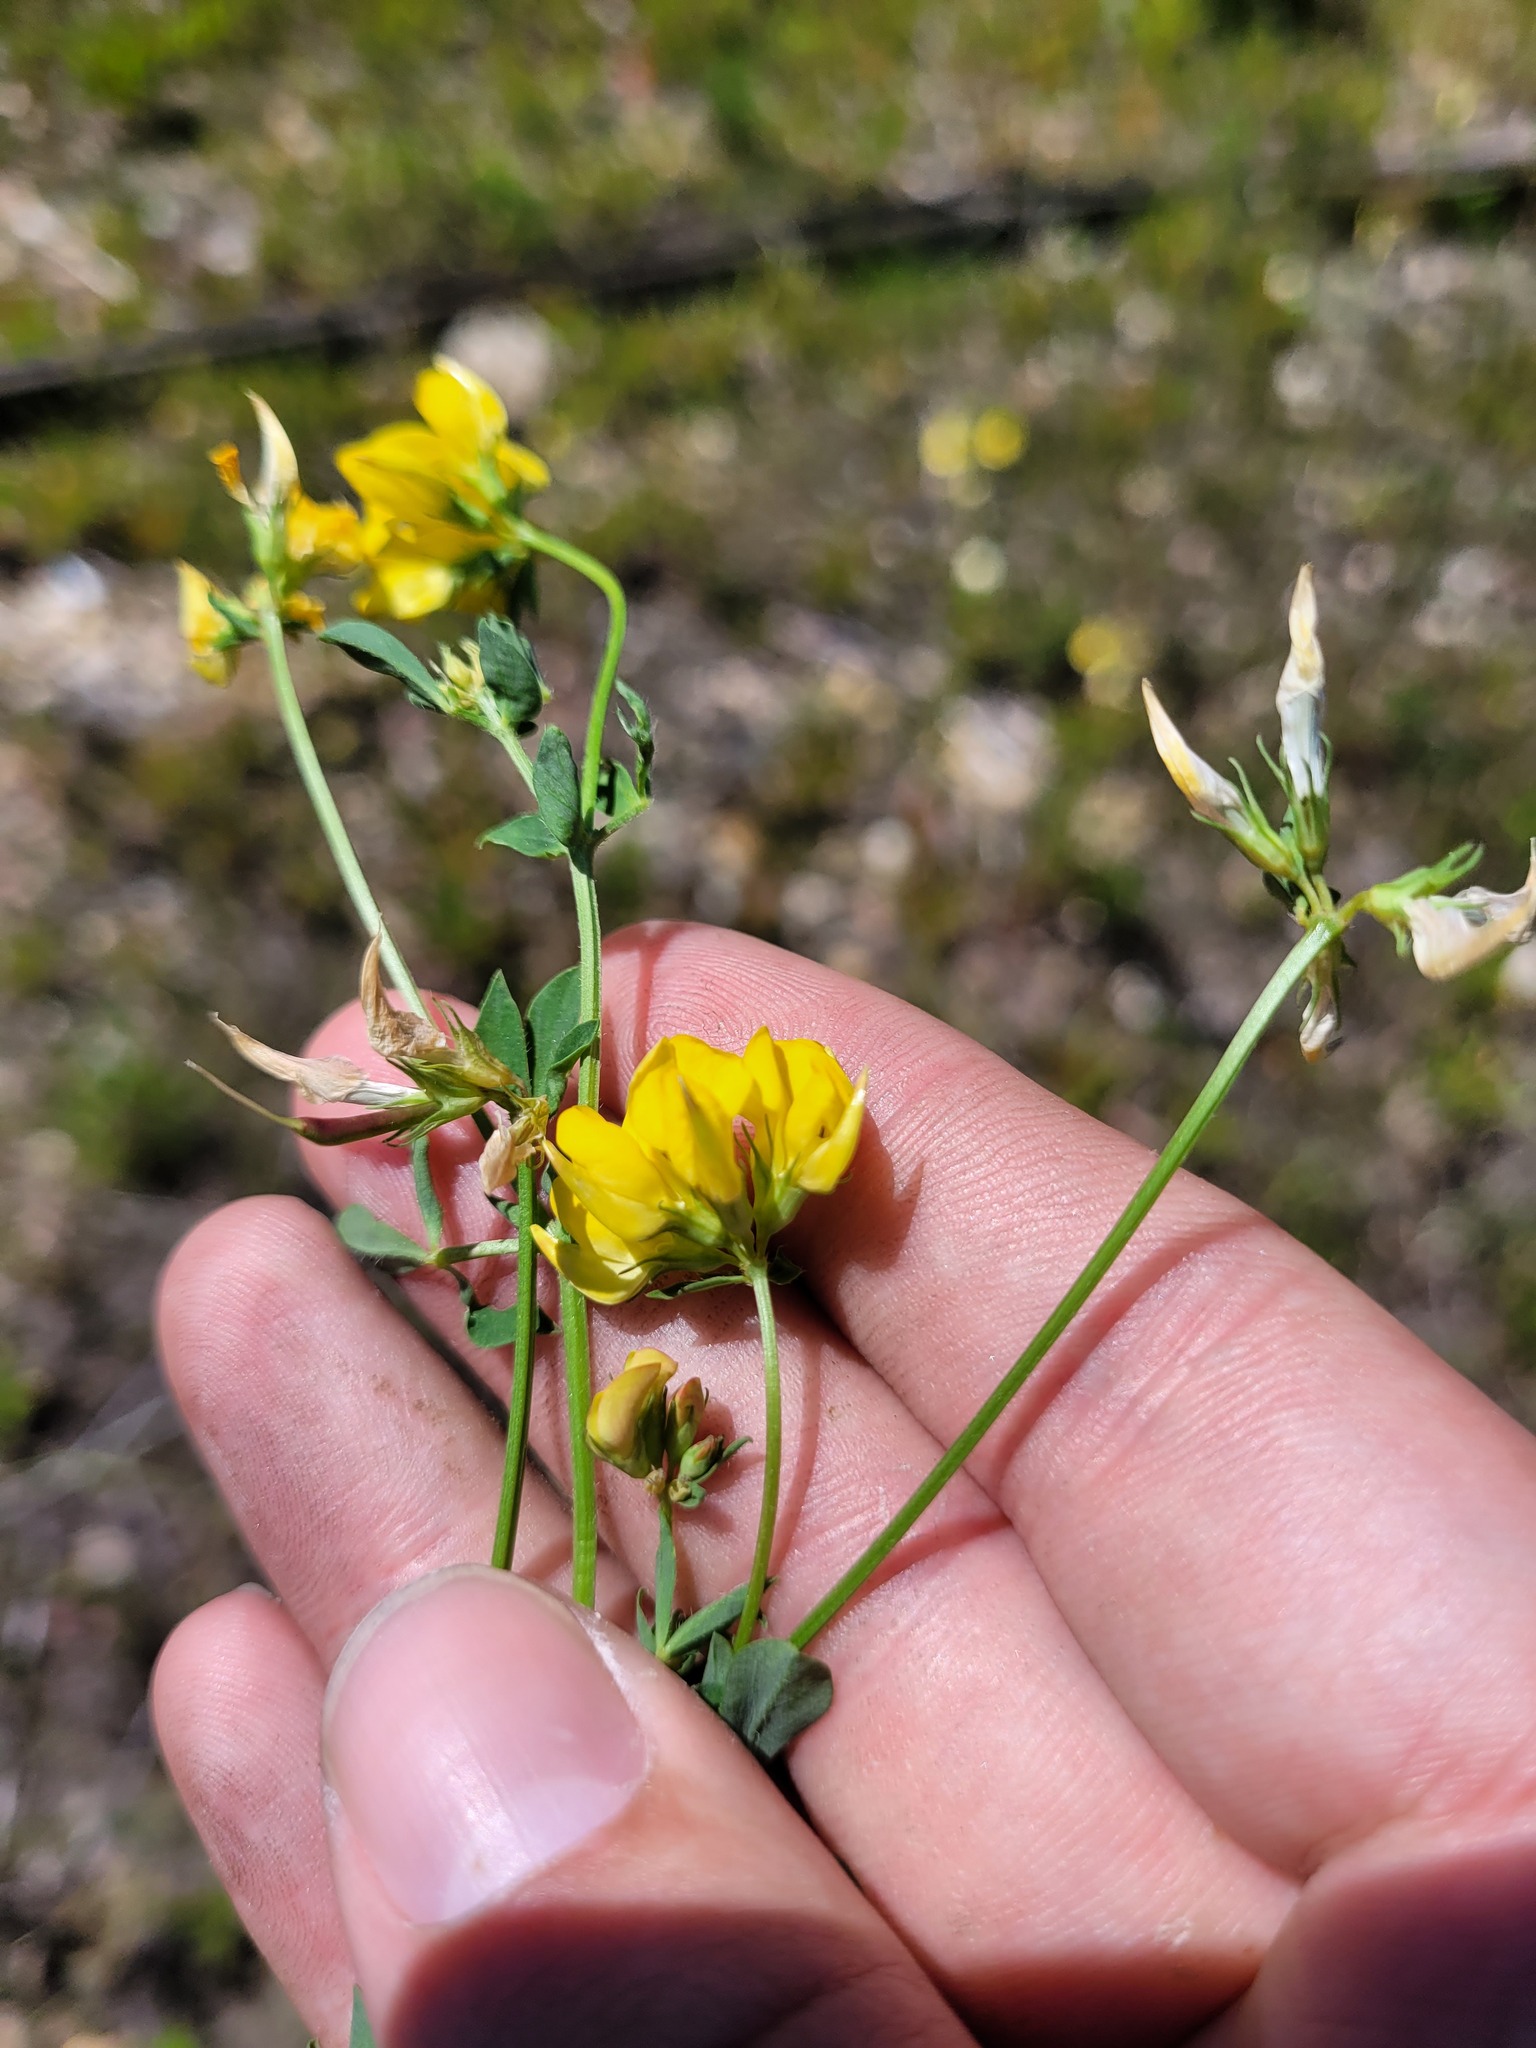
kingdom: Plantae
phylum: Tracheophyta
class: Magnoliopsida
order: Fabales
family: Fabaceae
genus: Lotus
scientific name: Lotus corniculatus
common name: Common bird's-foot-trefoil
